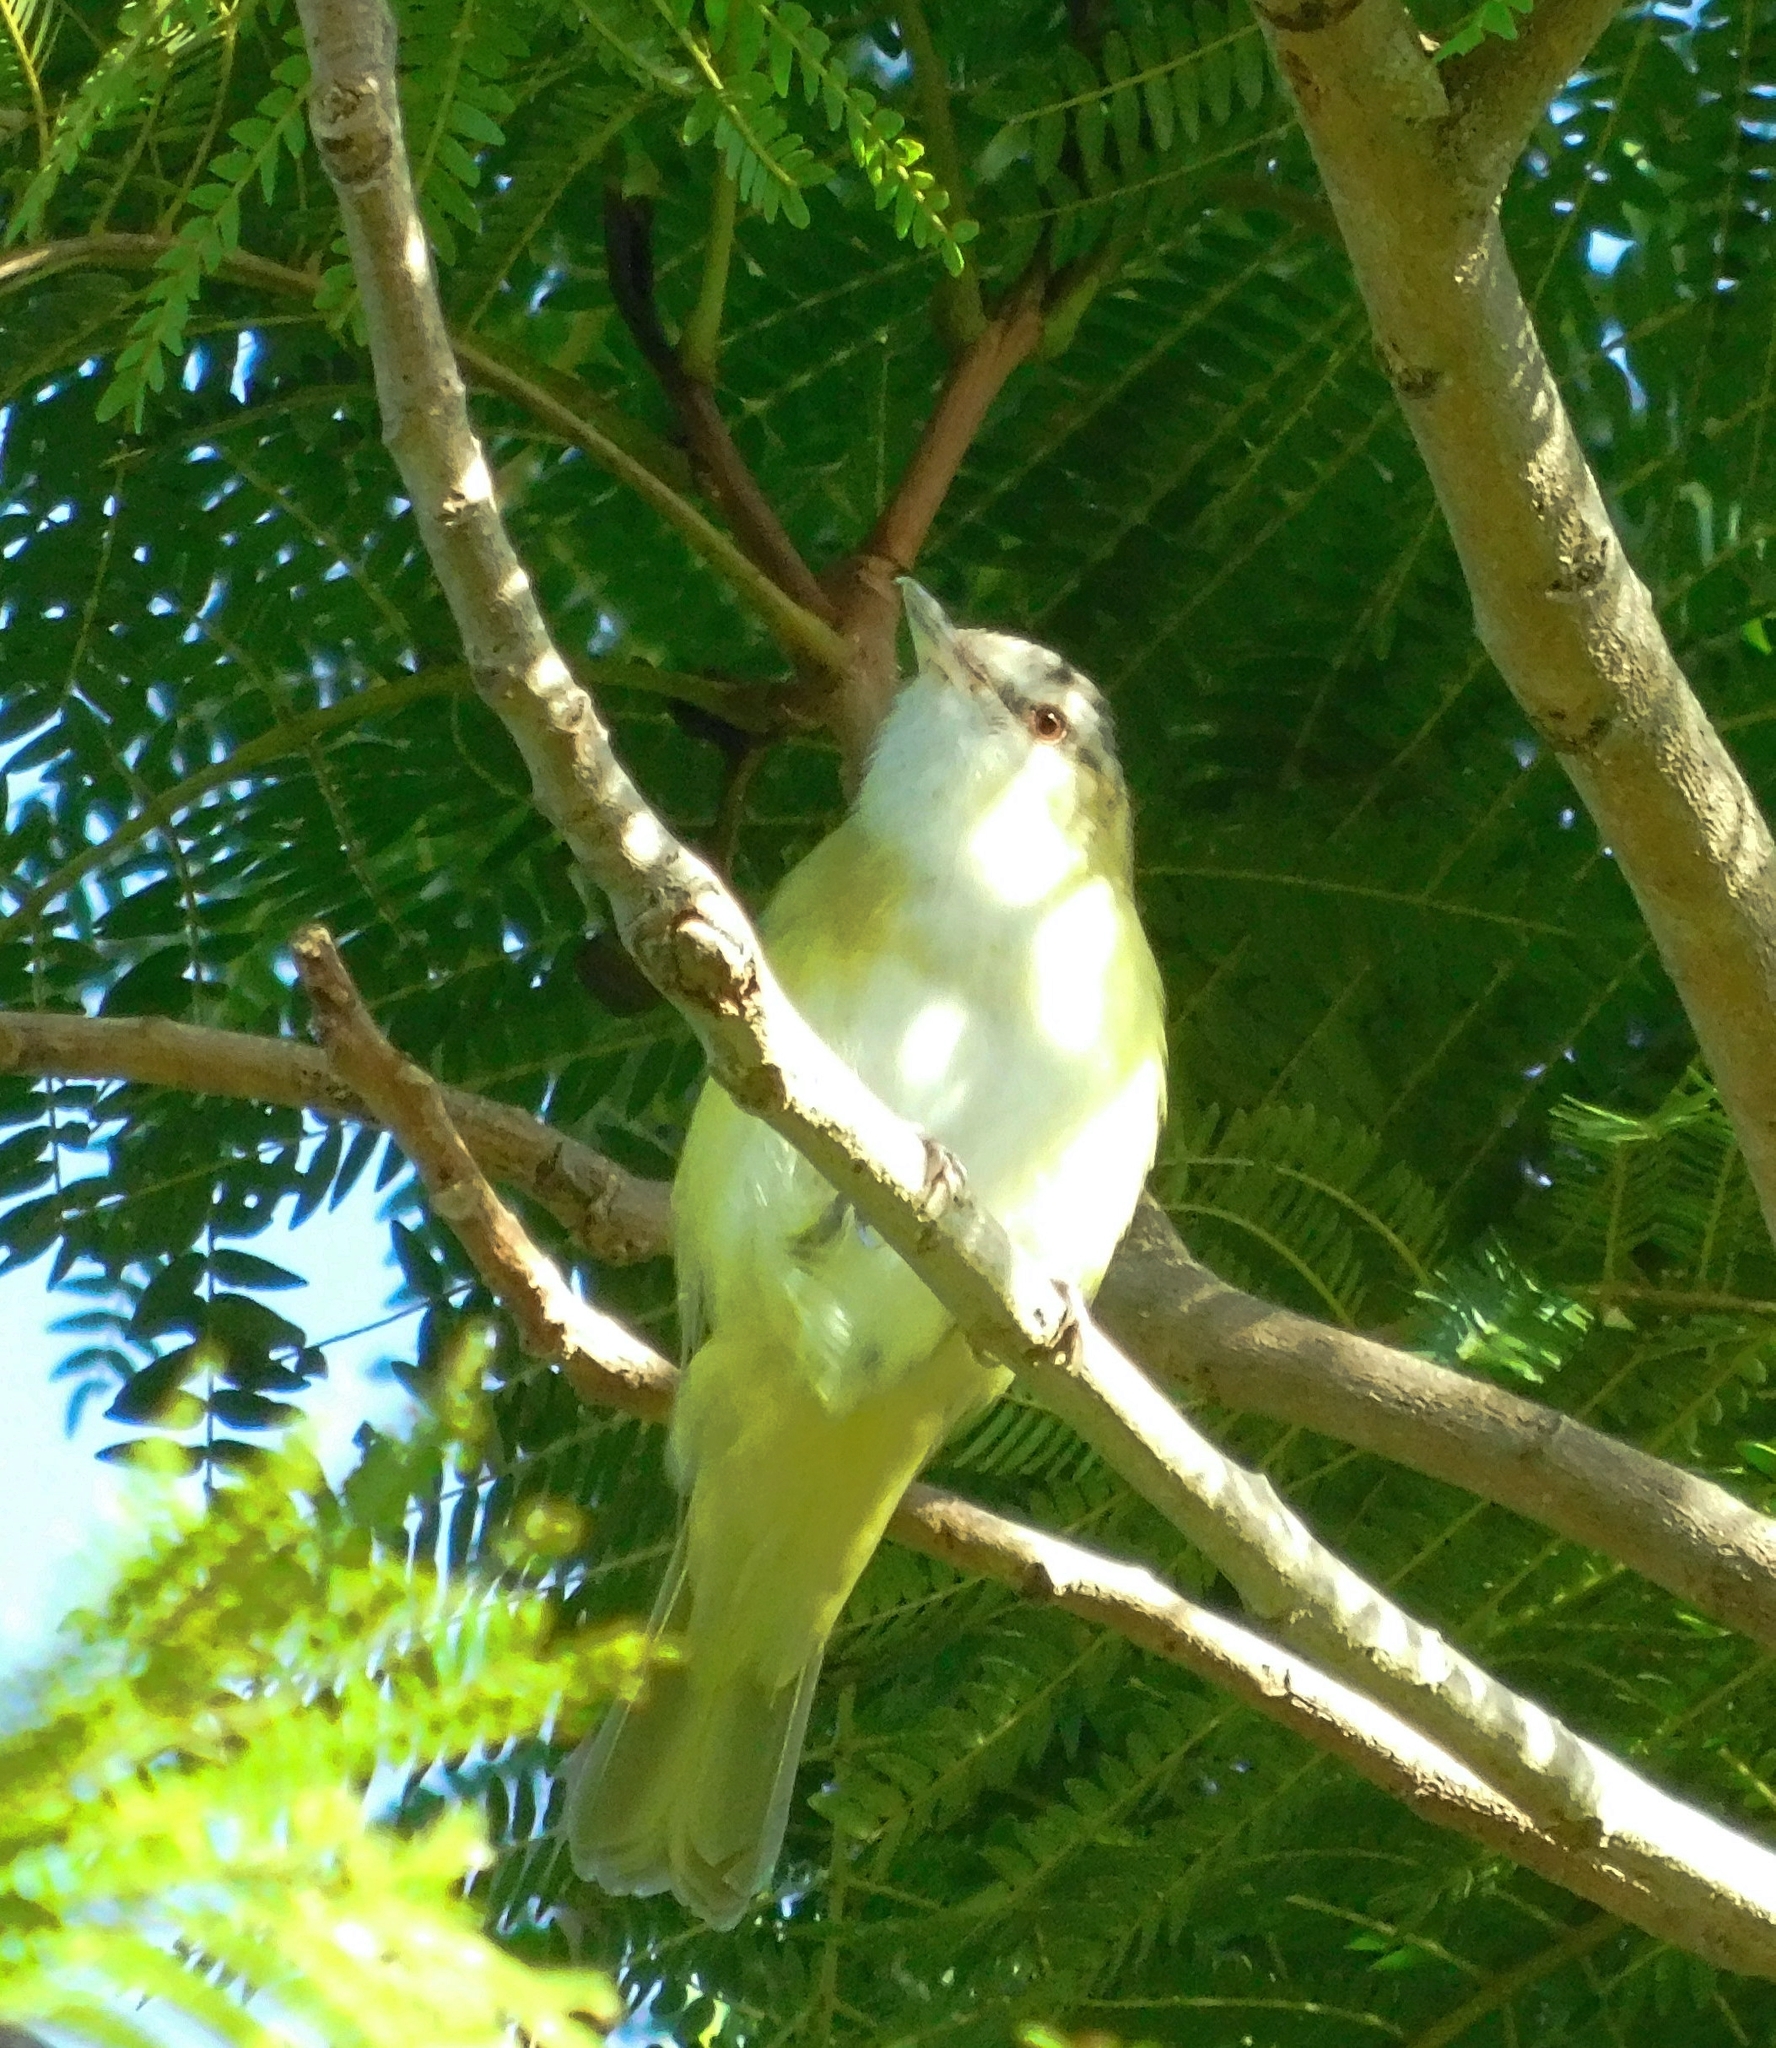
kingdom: Animalia
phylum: Chordata
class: Aves
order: Passeriformes
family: Vireonidae
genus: Vireo
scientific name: Vireo flavoviridis
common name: Yellow-green vireo
